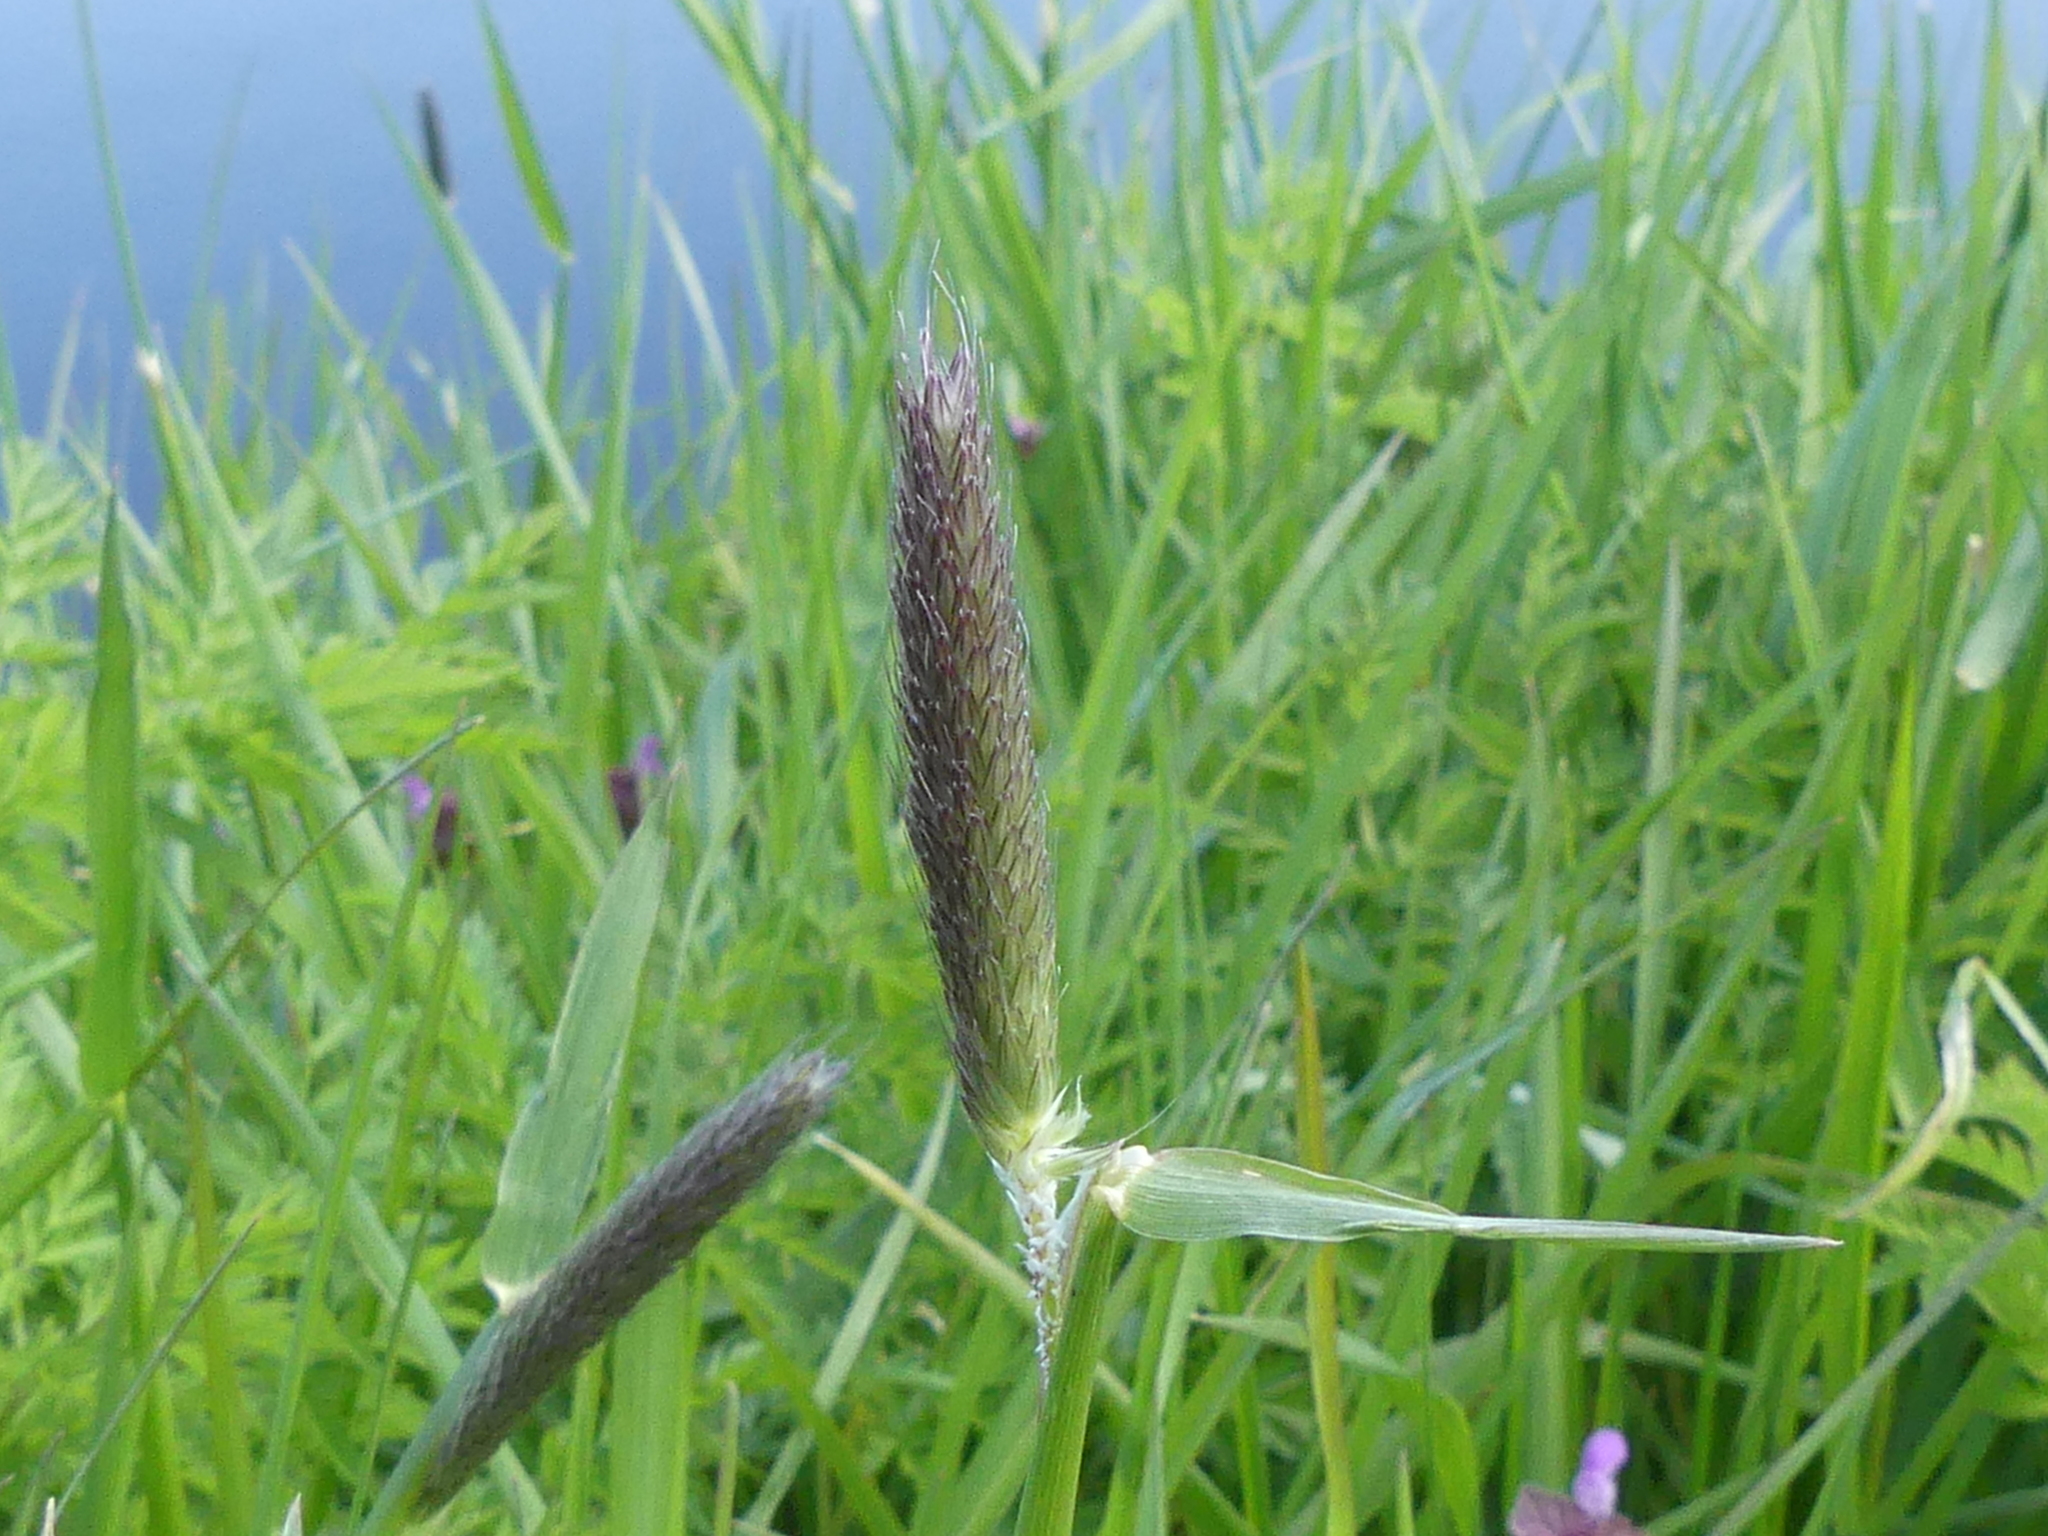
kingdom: Plantae
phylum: Tracheophyta
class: Liliopsida
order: Poales
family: Poaceae
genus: Alopecurus
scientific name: Alopecurus pratensis
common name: Meadow foxtail
